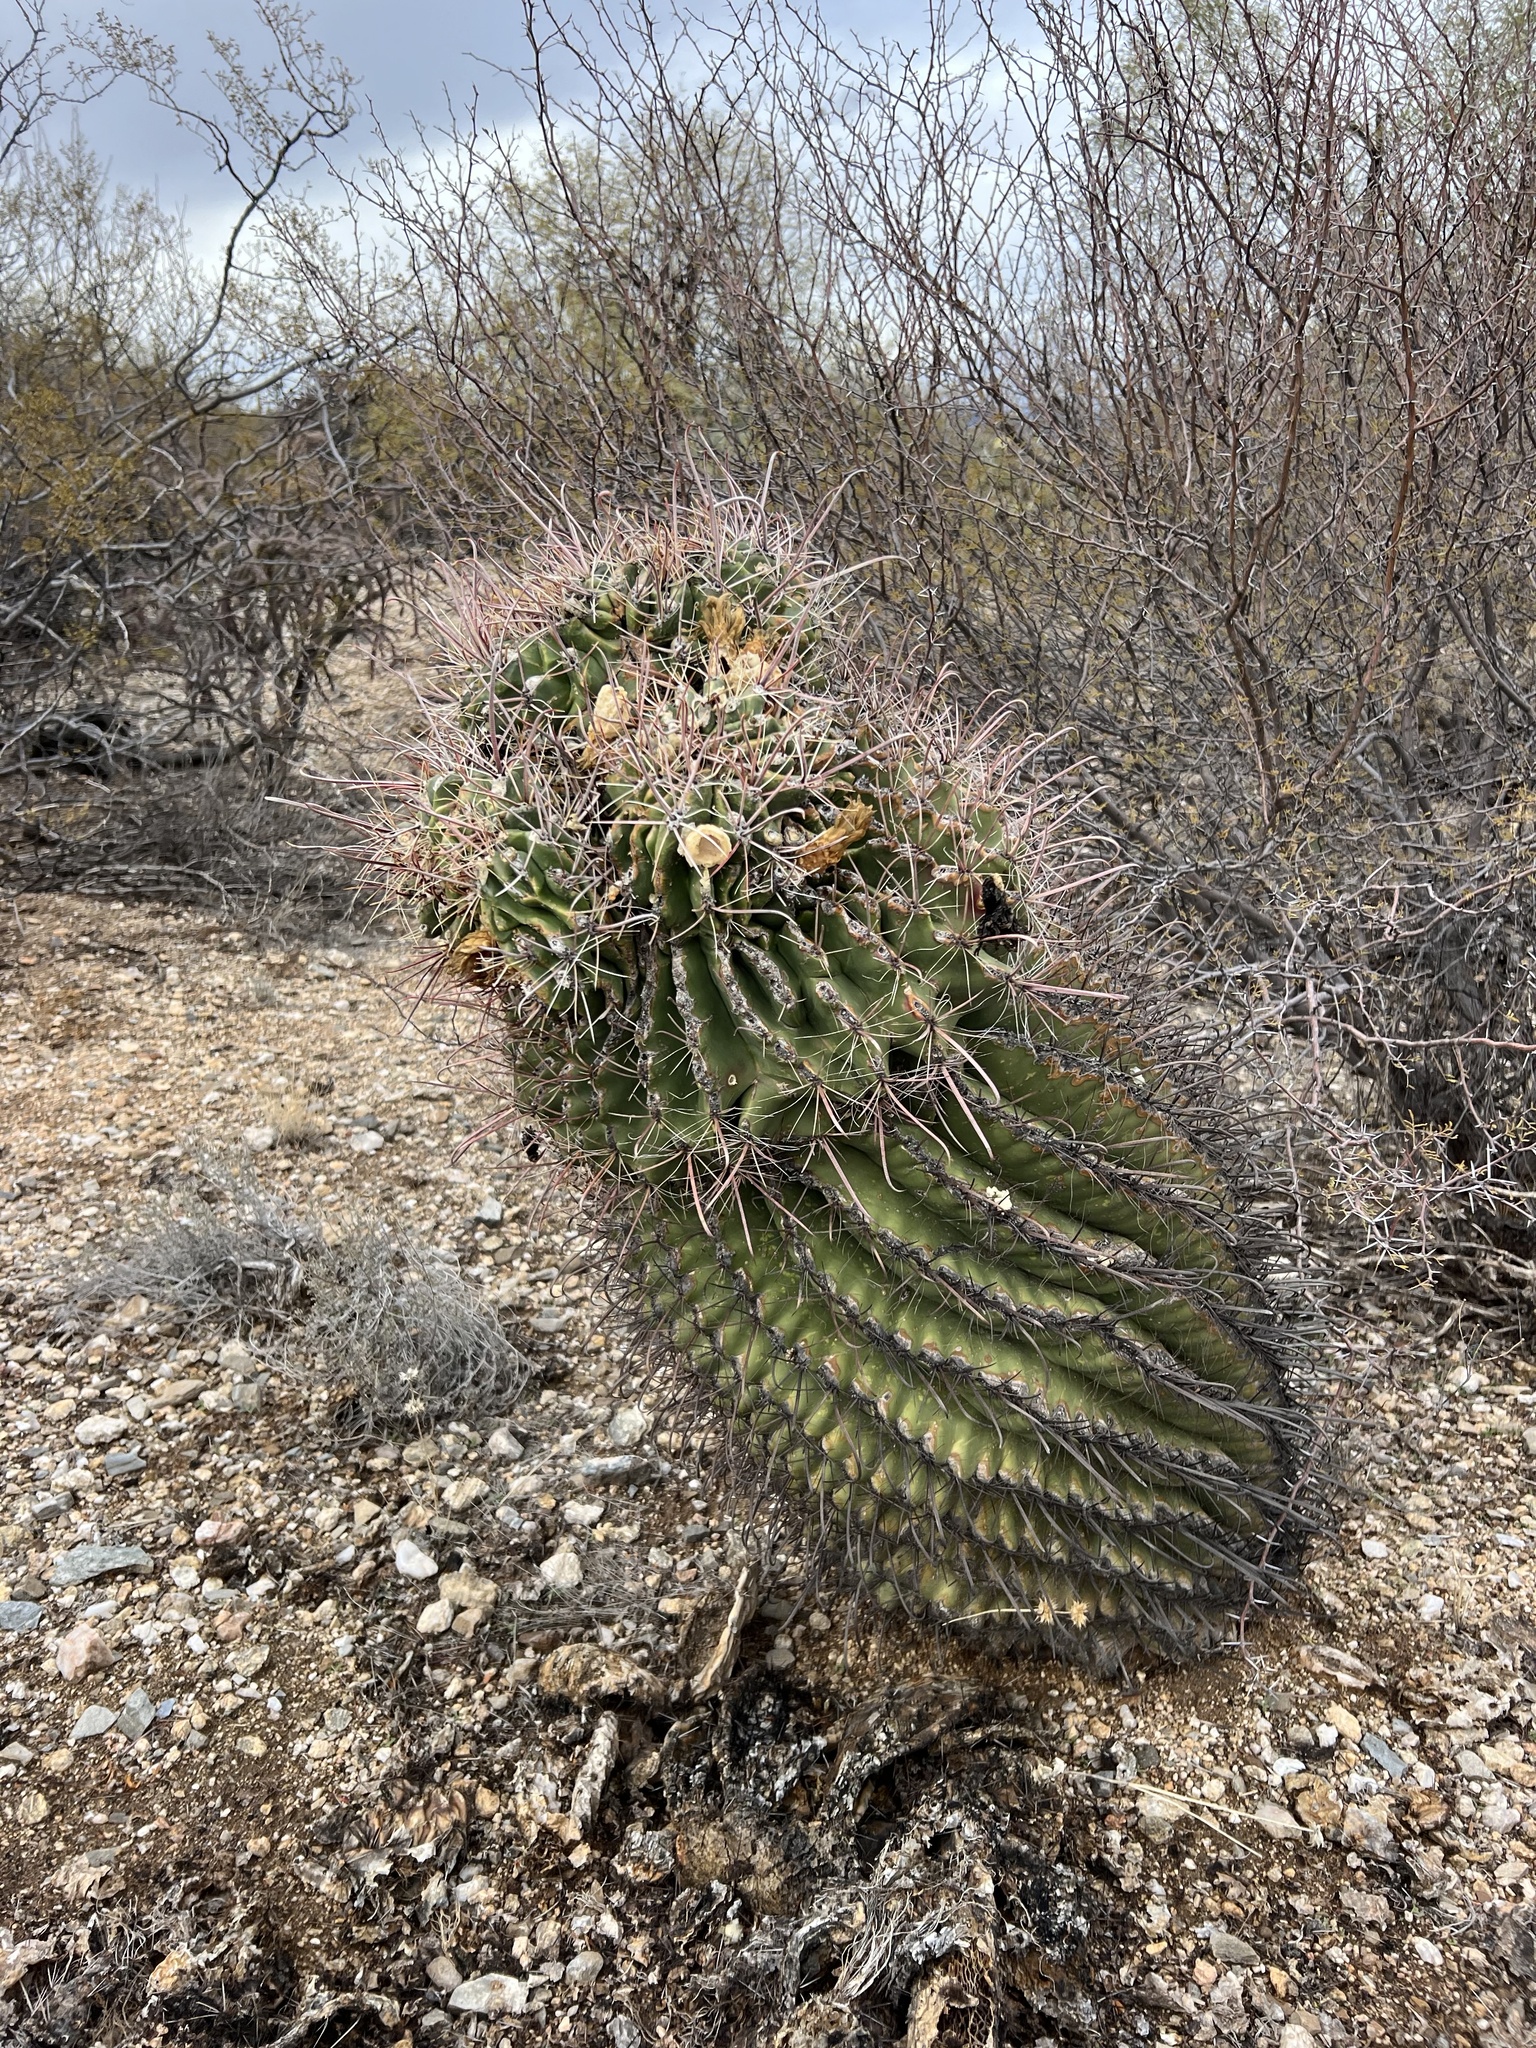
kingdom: Plantae
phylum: Tracheophyta
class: Magnoliopsida
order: Caryophyllales
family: Cactaceae
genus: Ferocactus
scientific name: Ferocactus wislizeni
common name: Candy barrel cactus
